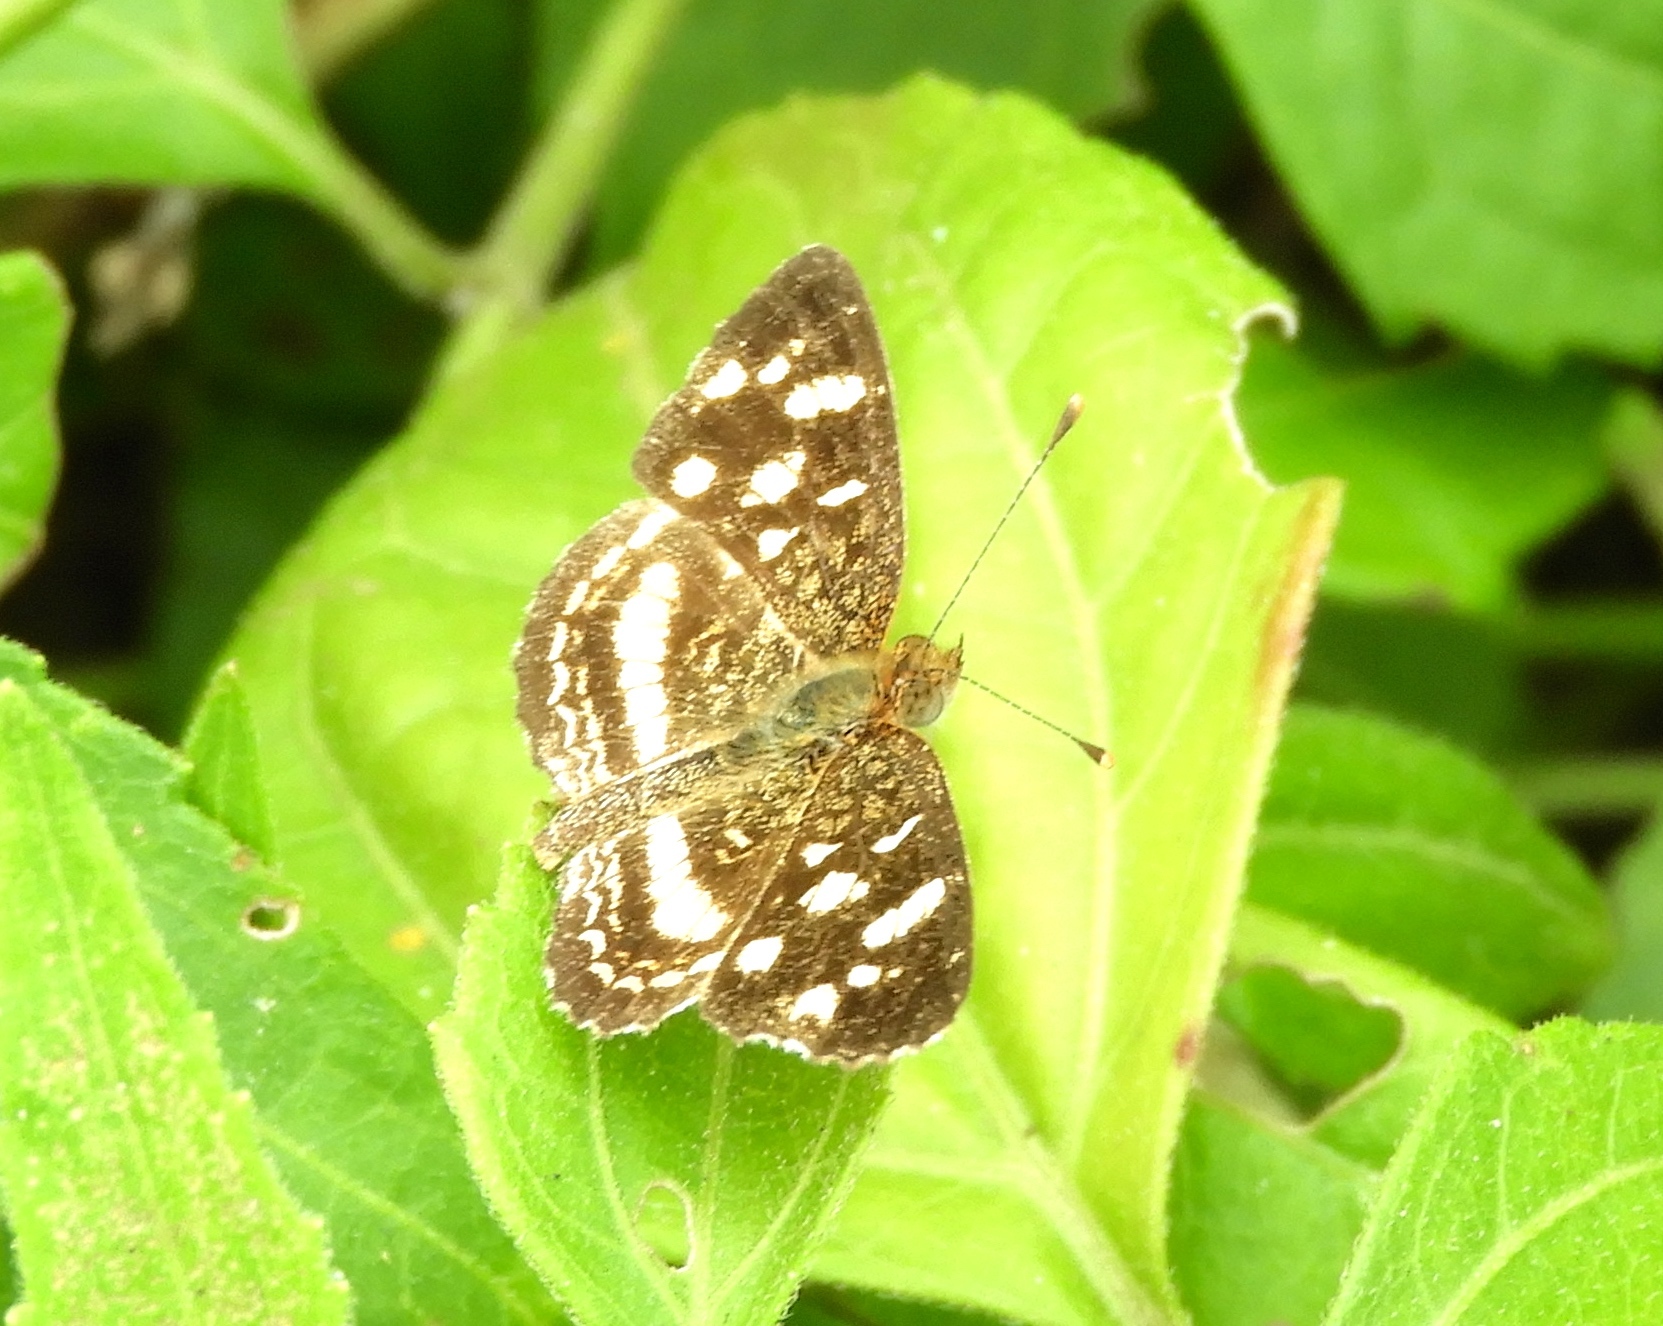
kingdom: Animalia
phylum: Arthropoda
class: Insecta
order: Lepidoptera
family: Nymphalidae
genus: Anthanassa
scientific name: Anthanassa tulcis
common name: Pale-banded crescent
